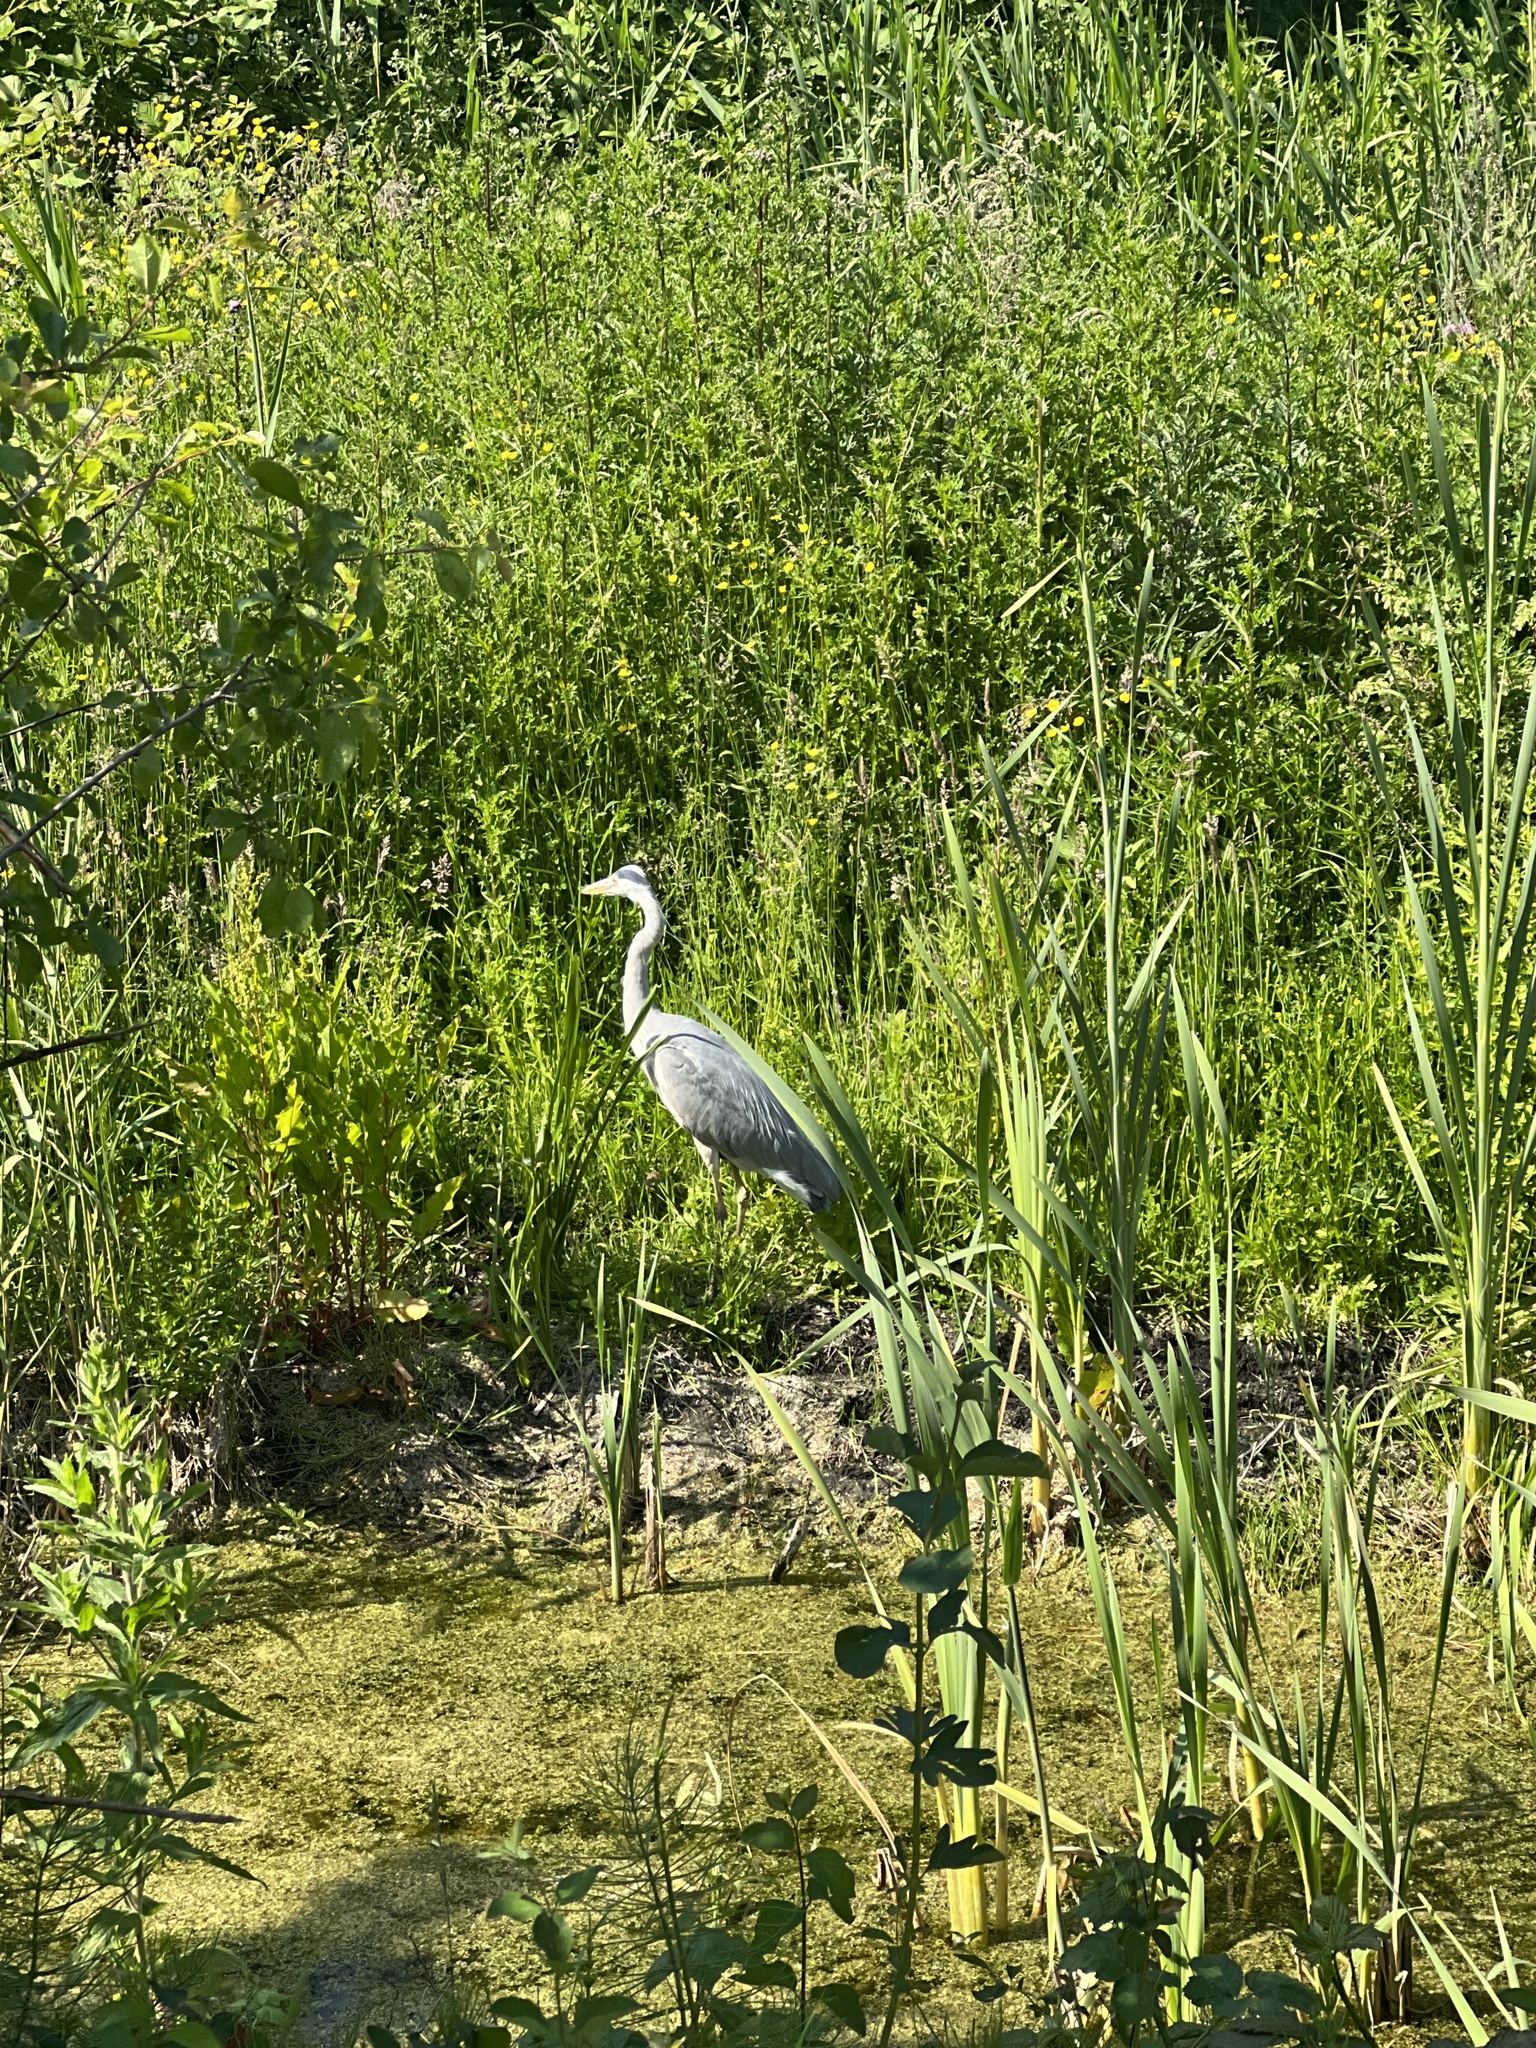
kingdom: Animalia
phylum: Chordata
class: Aves
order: Pelecaniformes
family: Ardeidae
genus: Ardea
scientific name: Ardea cinerea
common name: Grey heron
